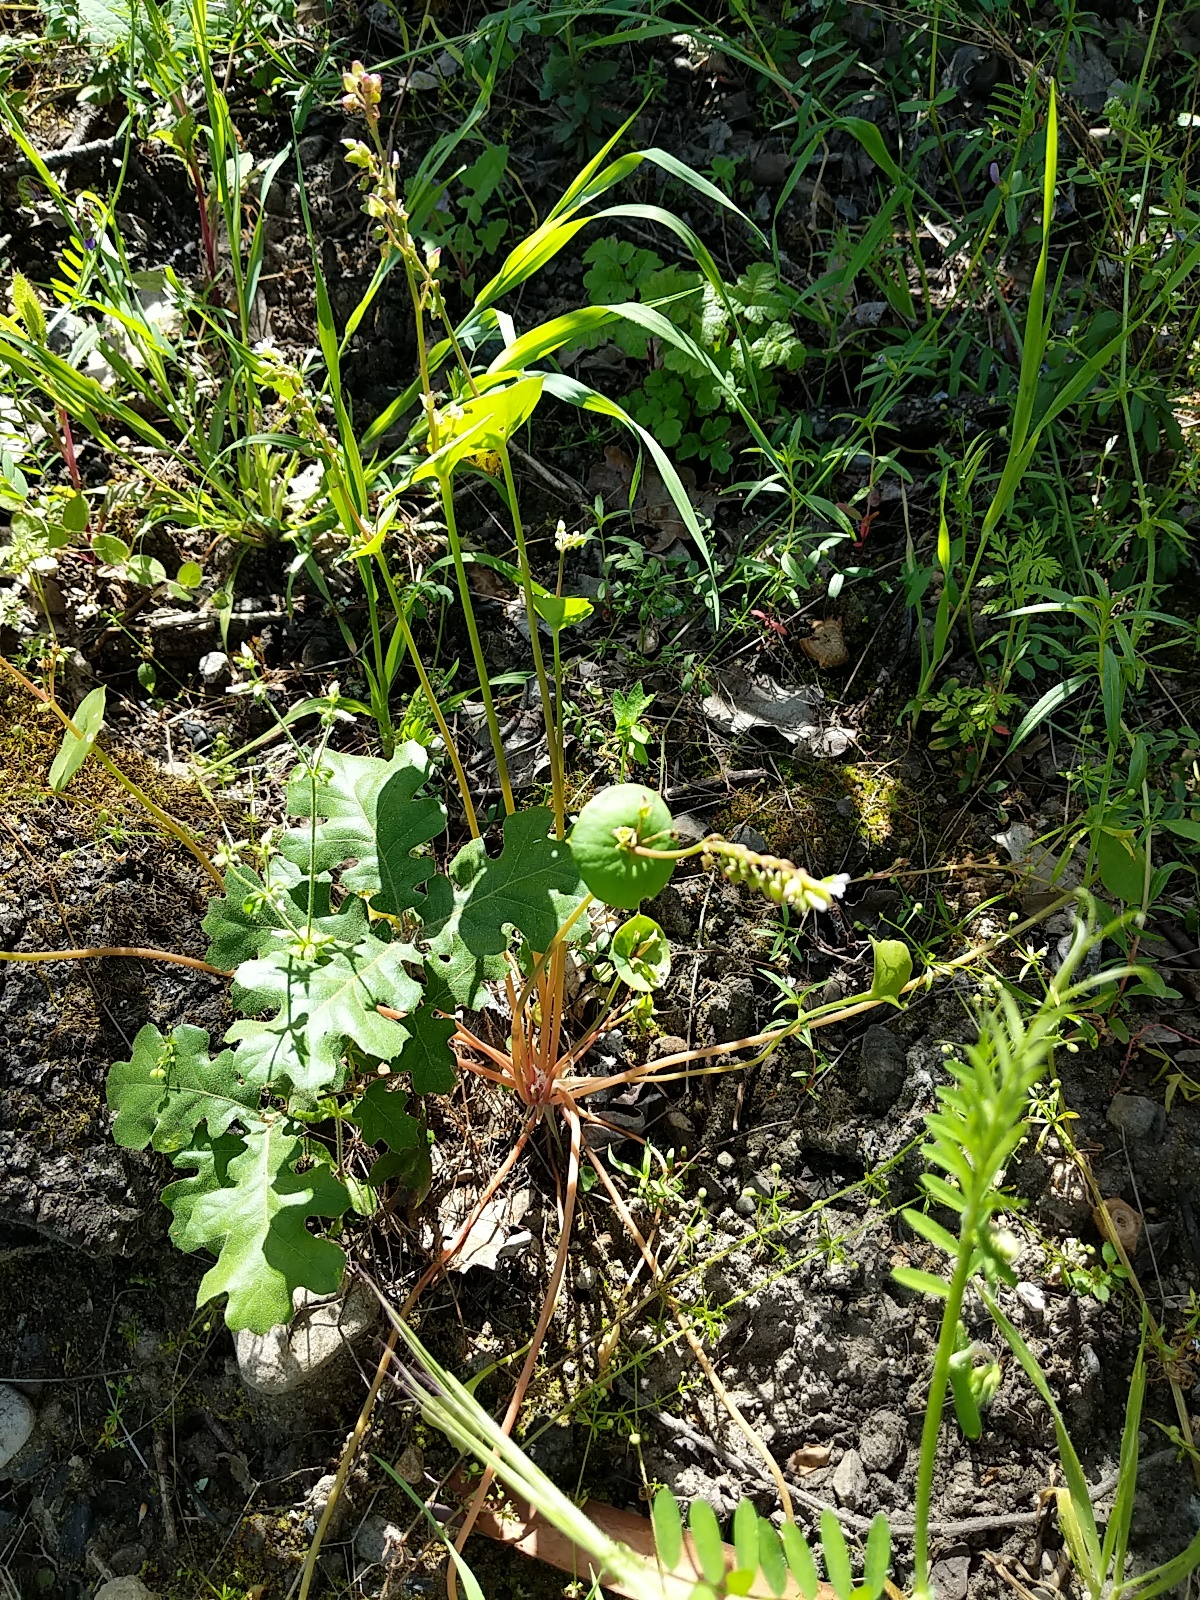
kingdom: Plantae
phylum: Tracheophyta
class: Magnoliopsida
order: Caryophyllales
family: Montiaceae
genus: Claytonia
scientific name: Claytonia perfoliata
